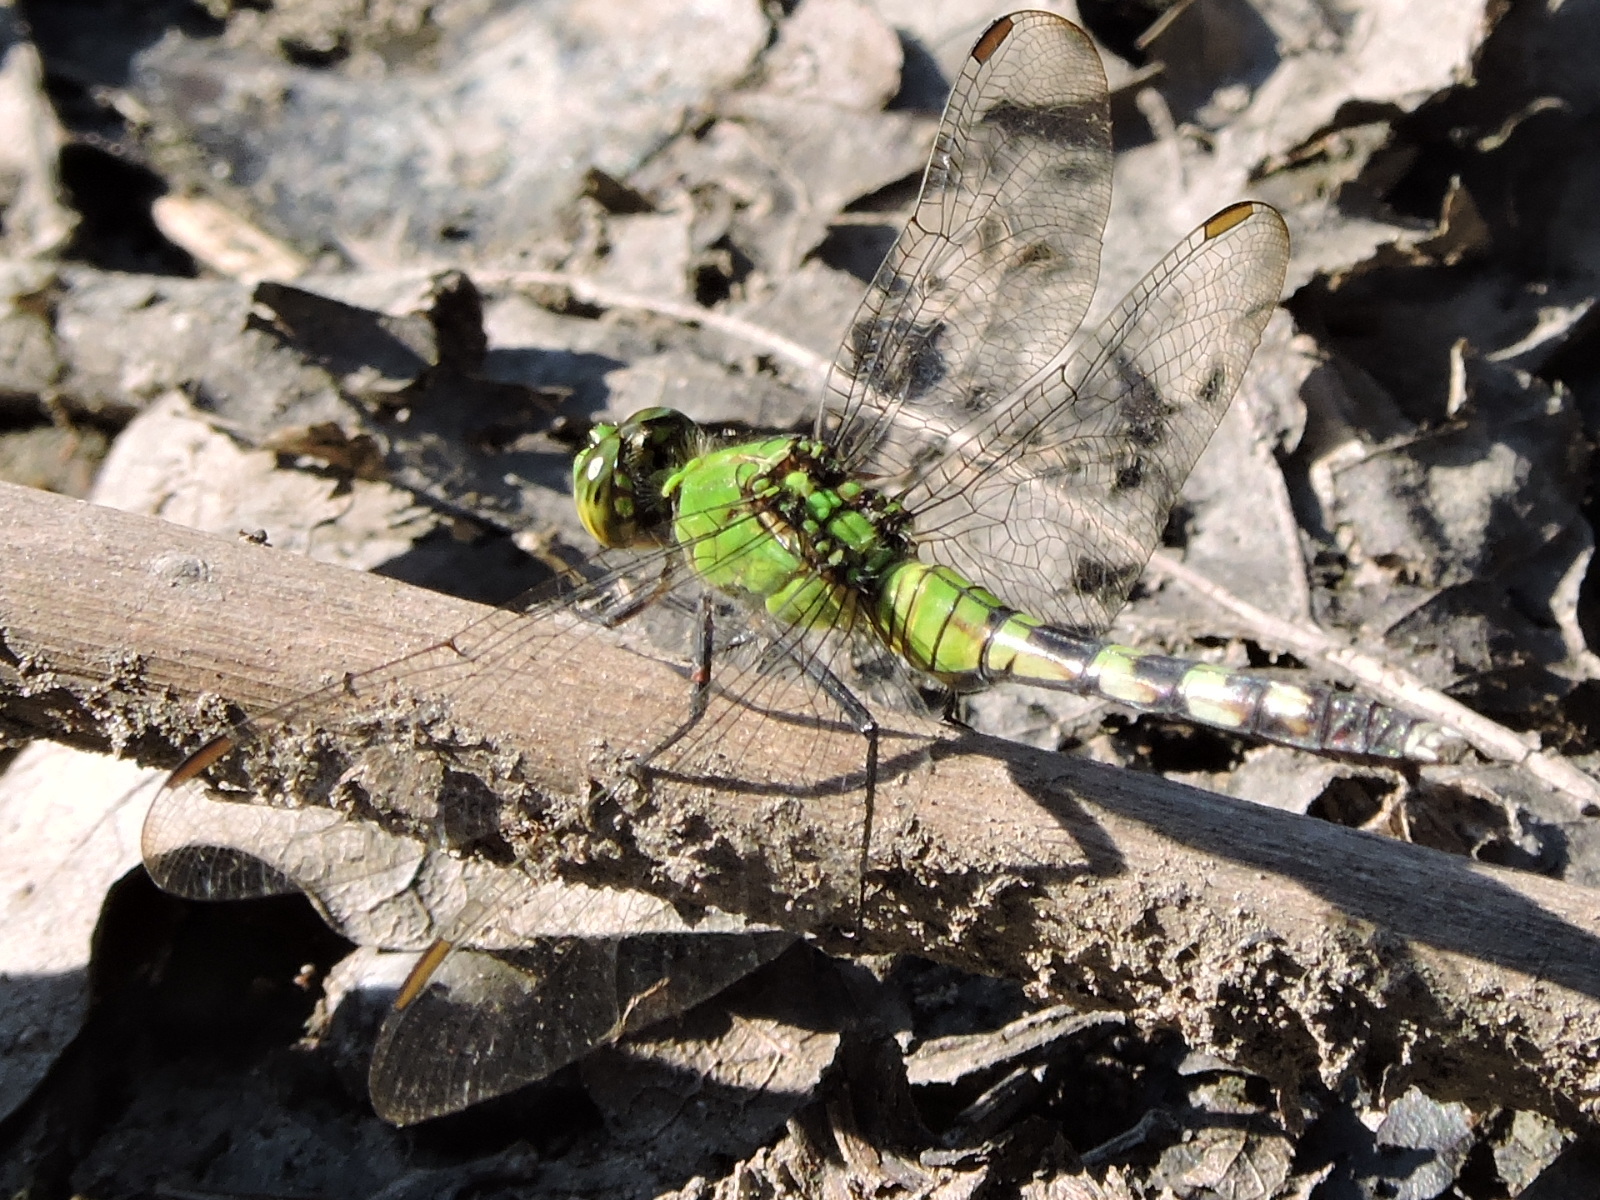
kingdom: Animalia
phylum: Arthropoda
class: Insecta
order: Odonata
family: Libellulidae
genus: Erythemis
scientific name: Erythemis simplicicollis
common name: Eastern pondhawk
